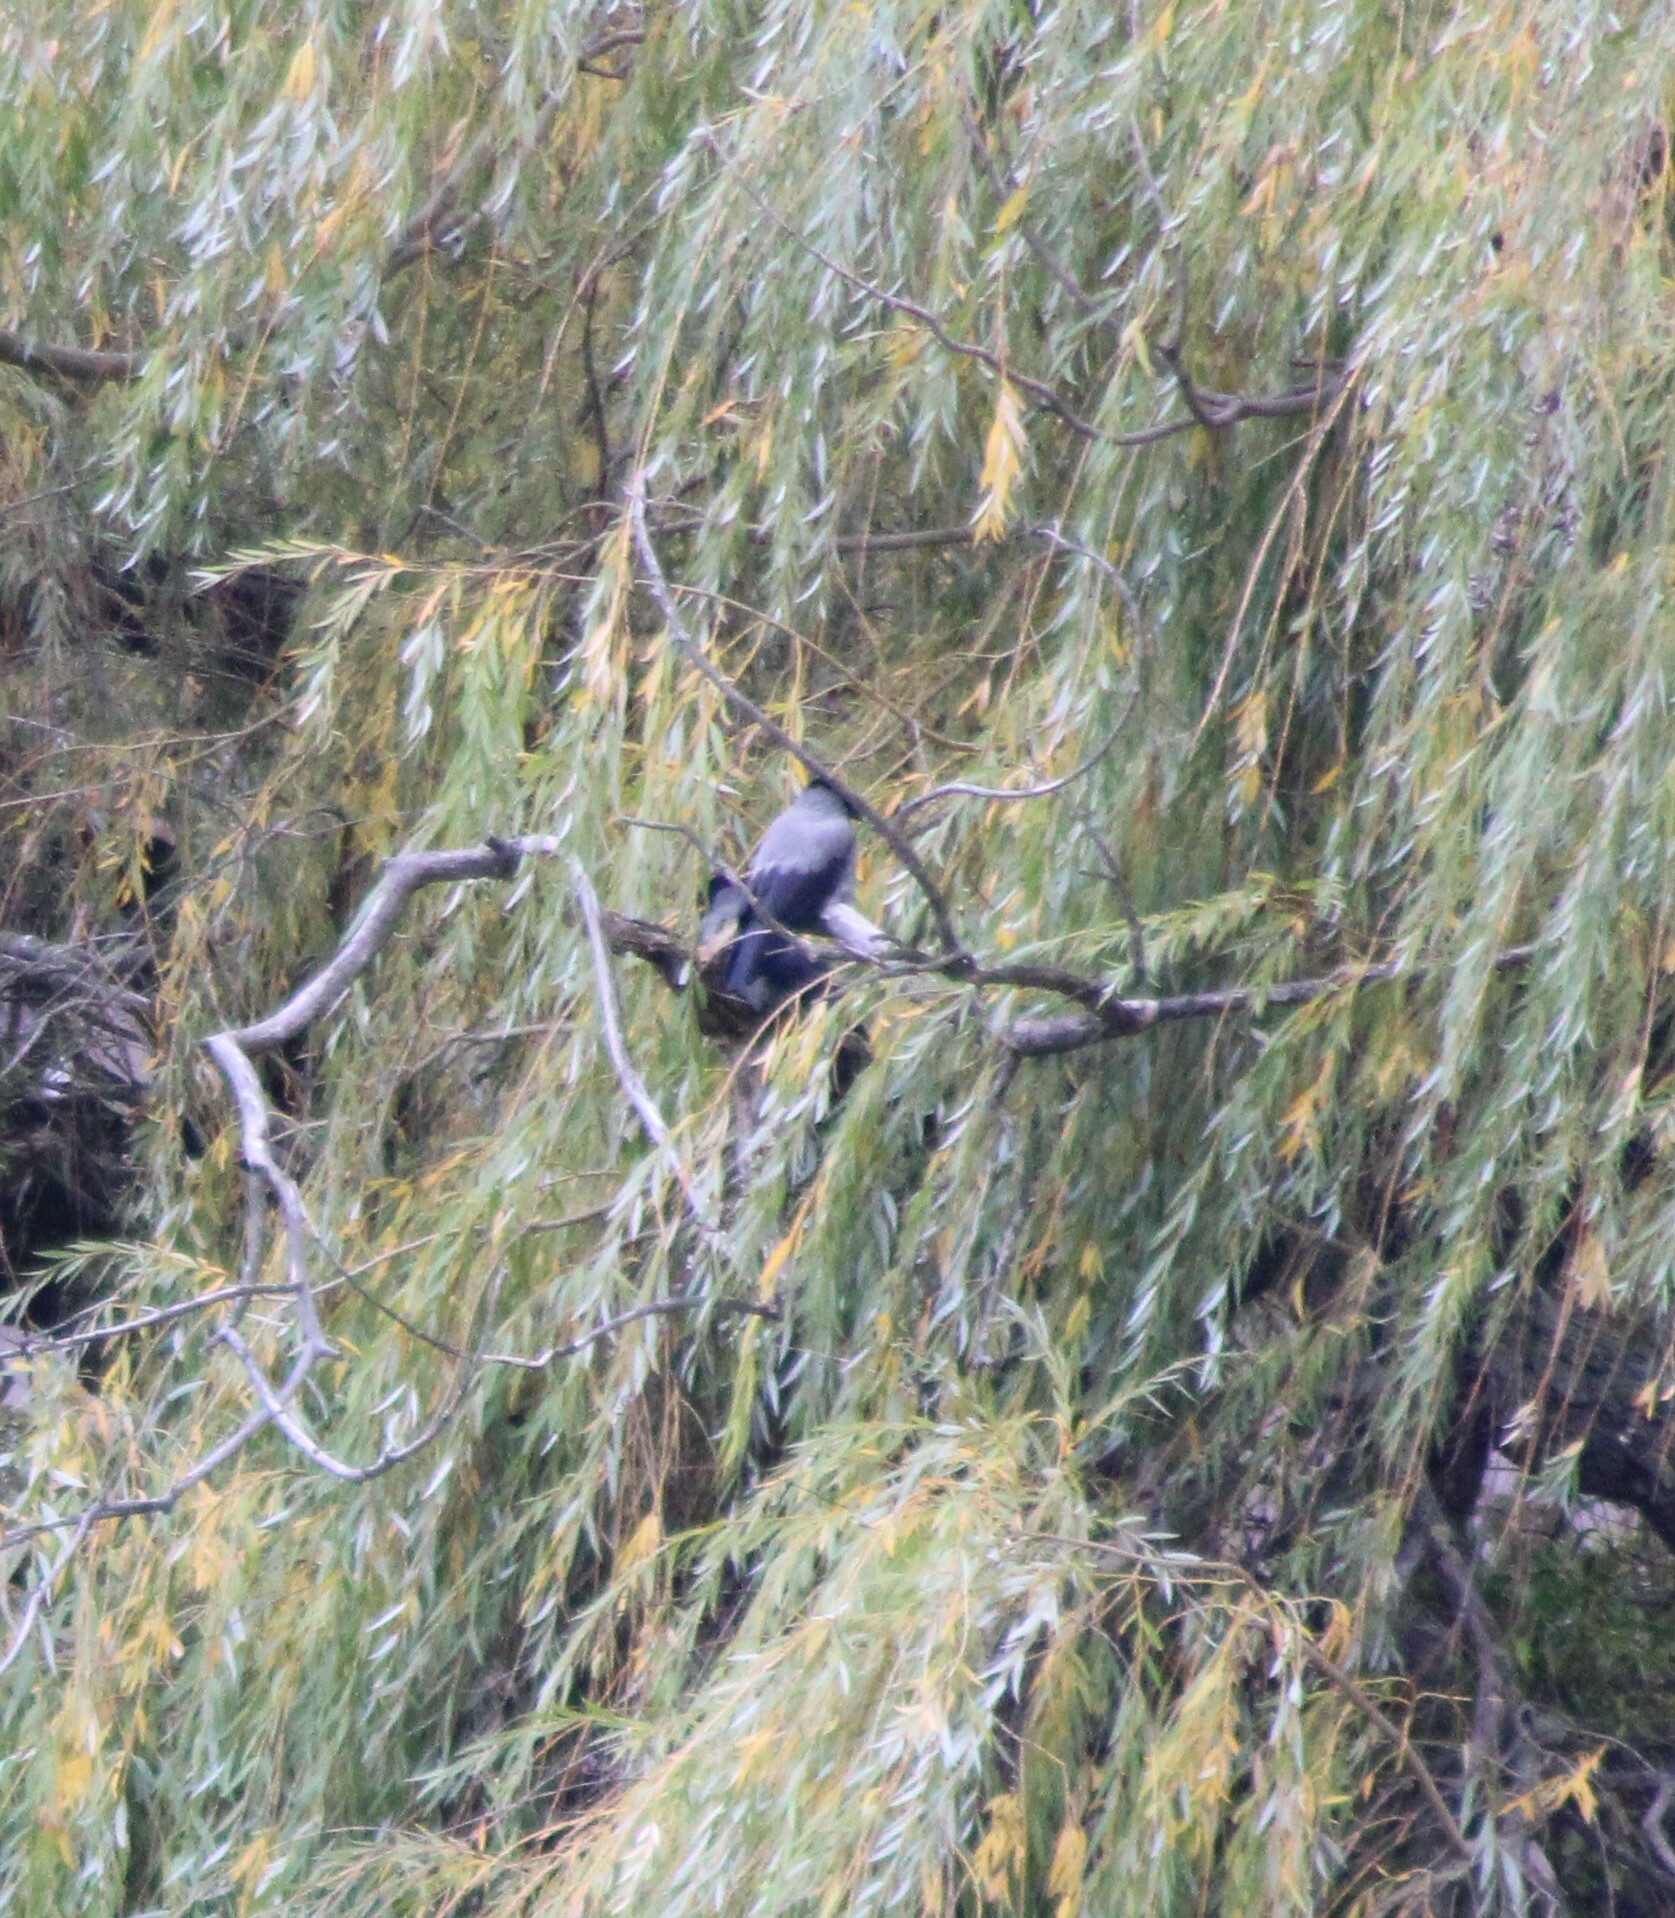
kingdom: Animalia
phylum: Chordata
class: Aves
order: Passeriformes
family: Corvidae
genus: Corvus
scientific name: Corvus cornix
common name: Hooded crow
